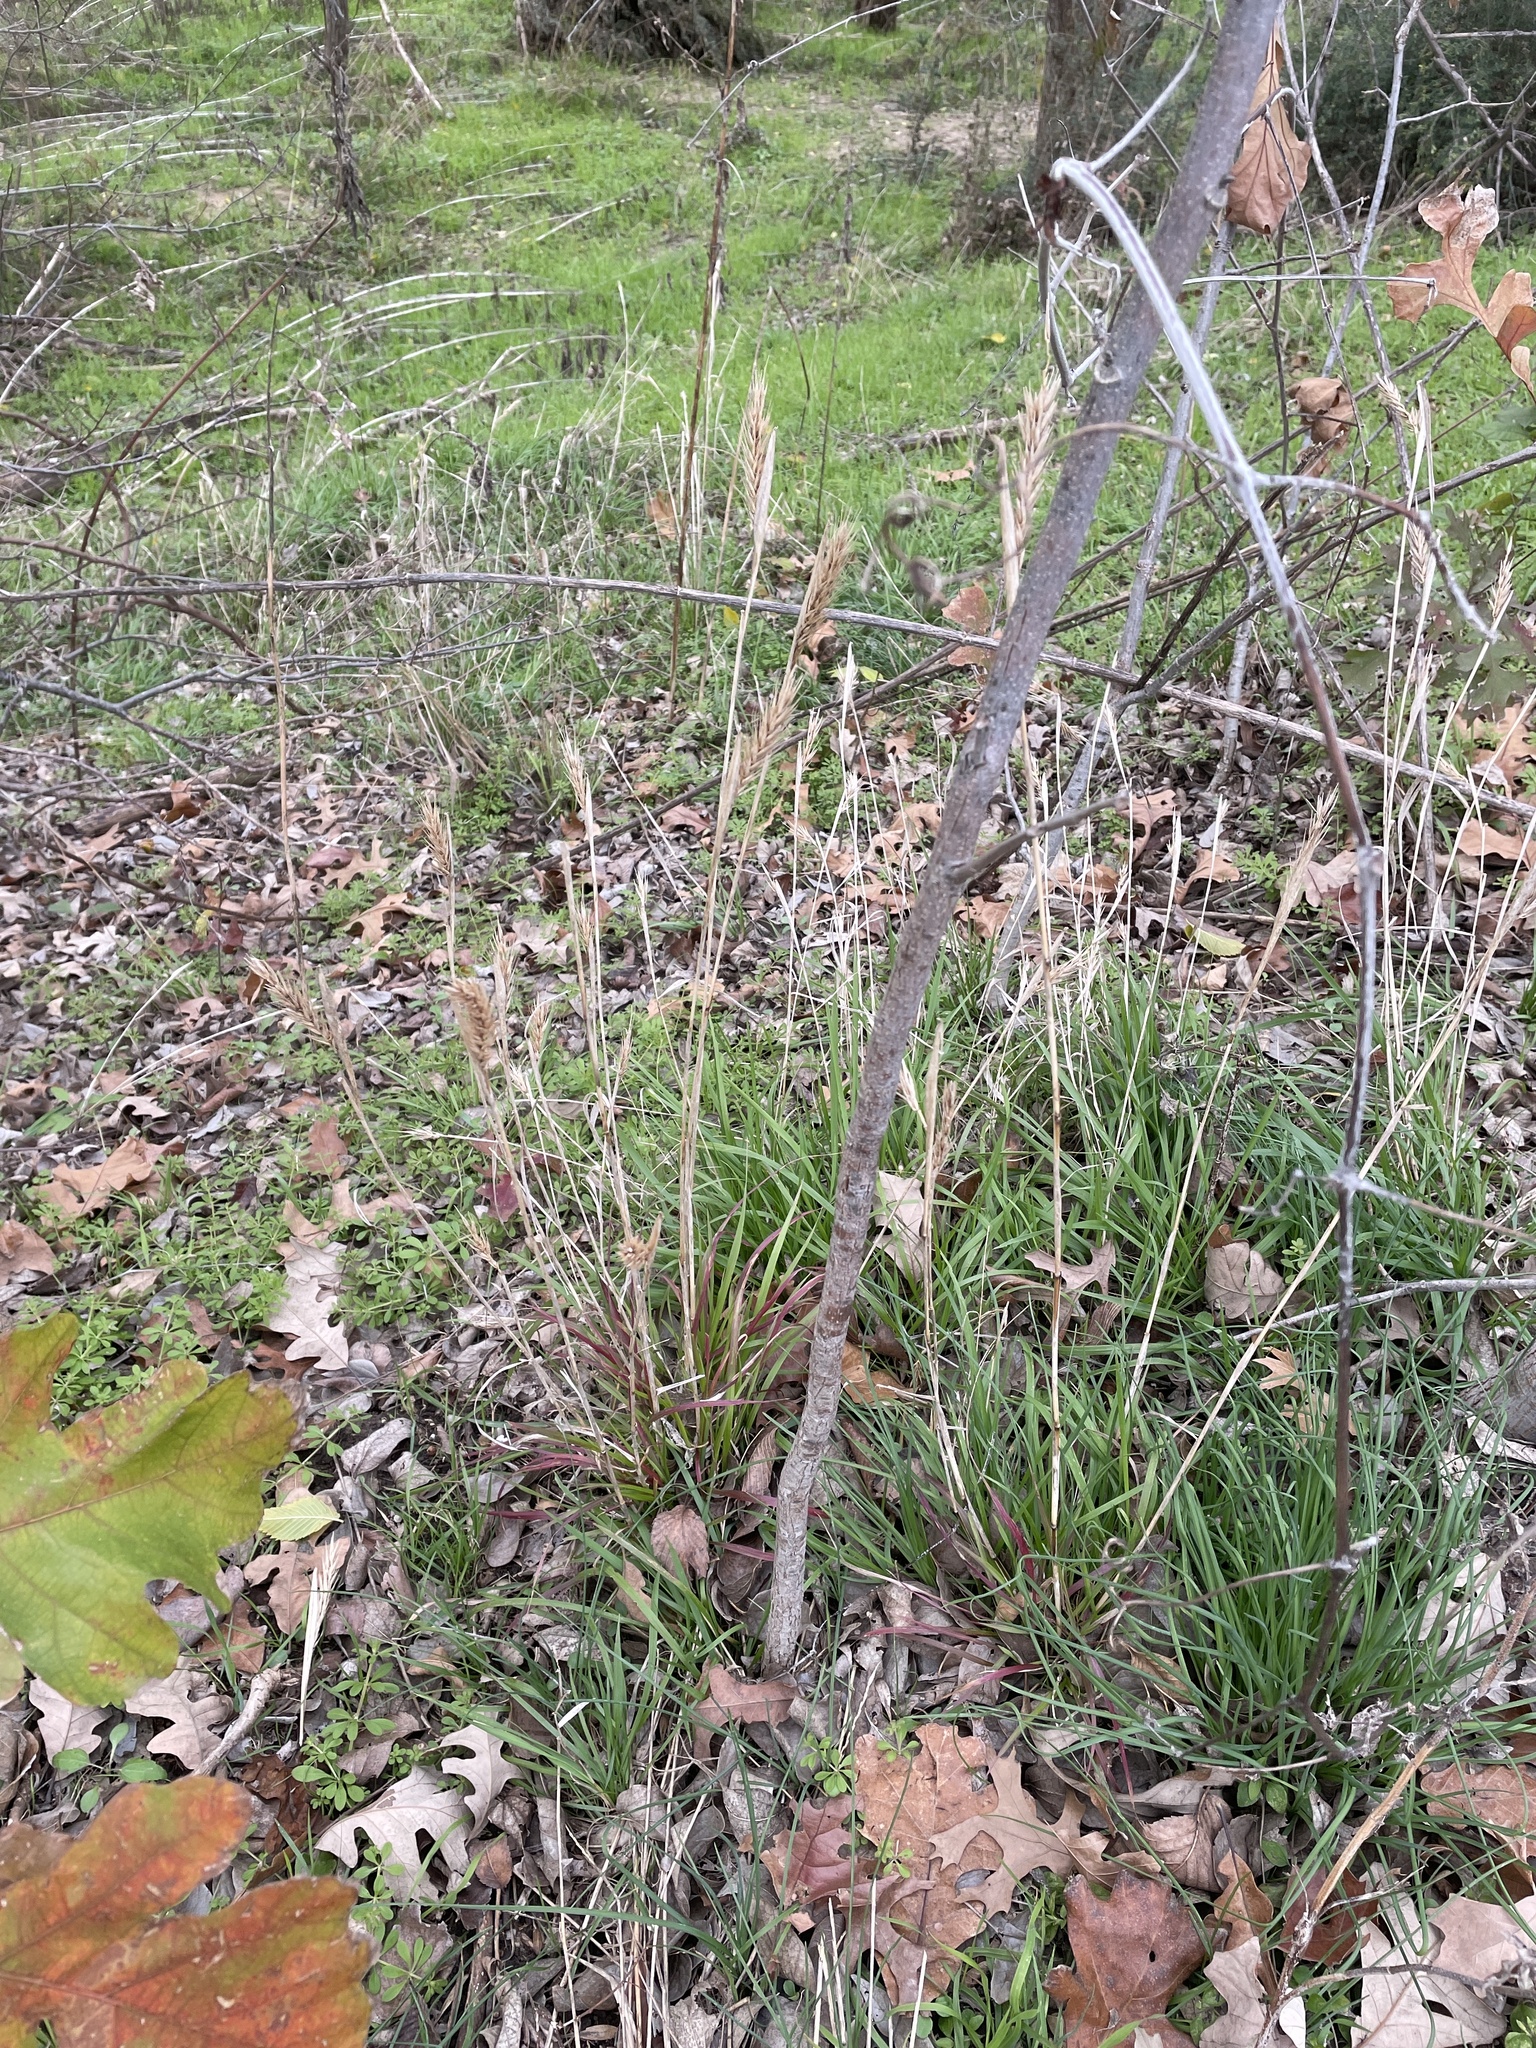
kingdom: Plantae
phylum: Tracheophyta
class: Liliopsida
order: Poales
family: Poaceae
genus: Elymus
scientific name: Elymus virginicus
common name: Common eastern wildrye
